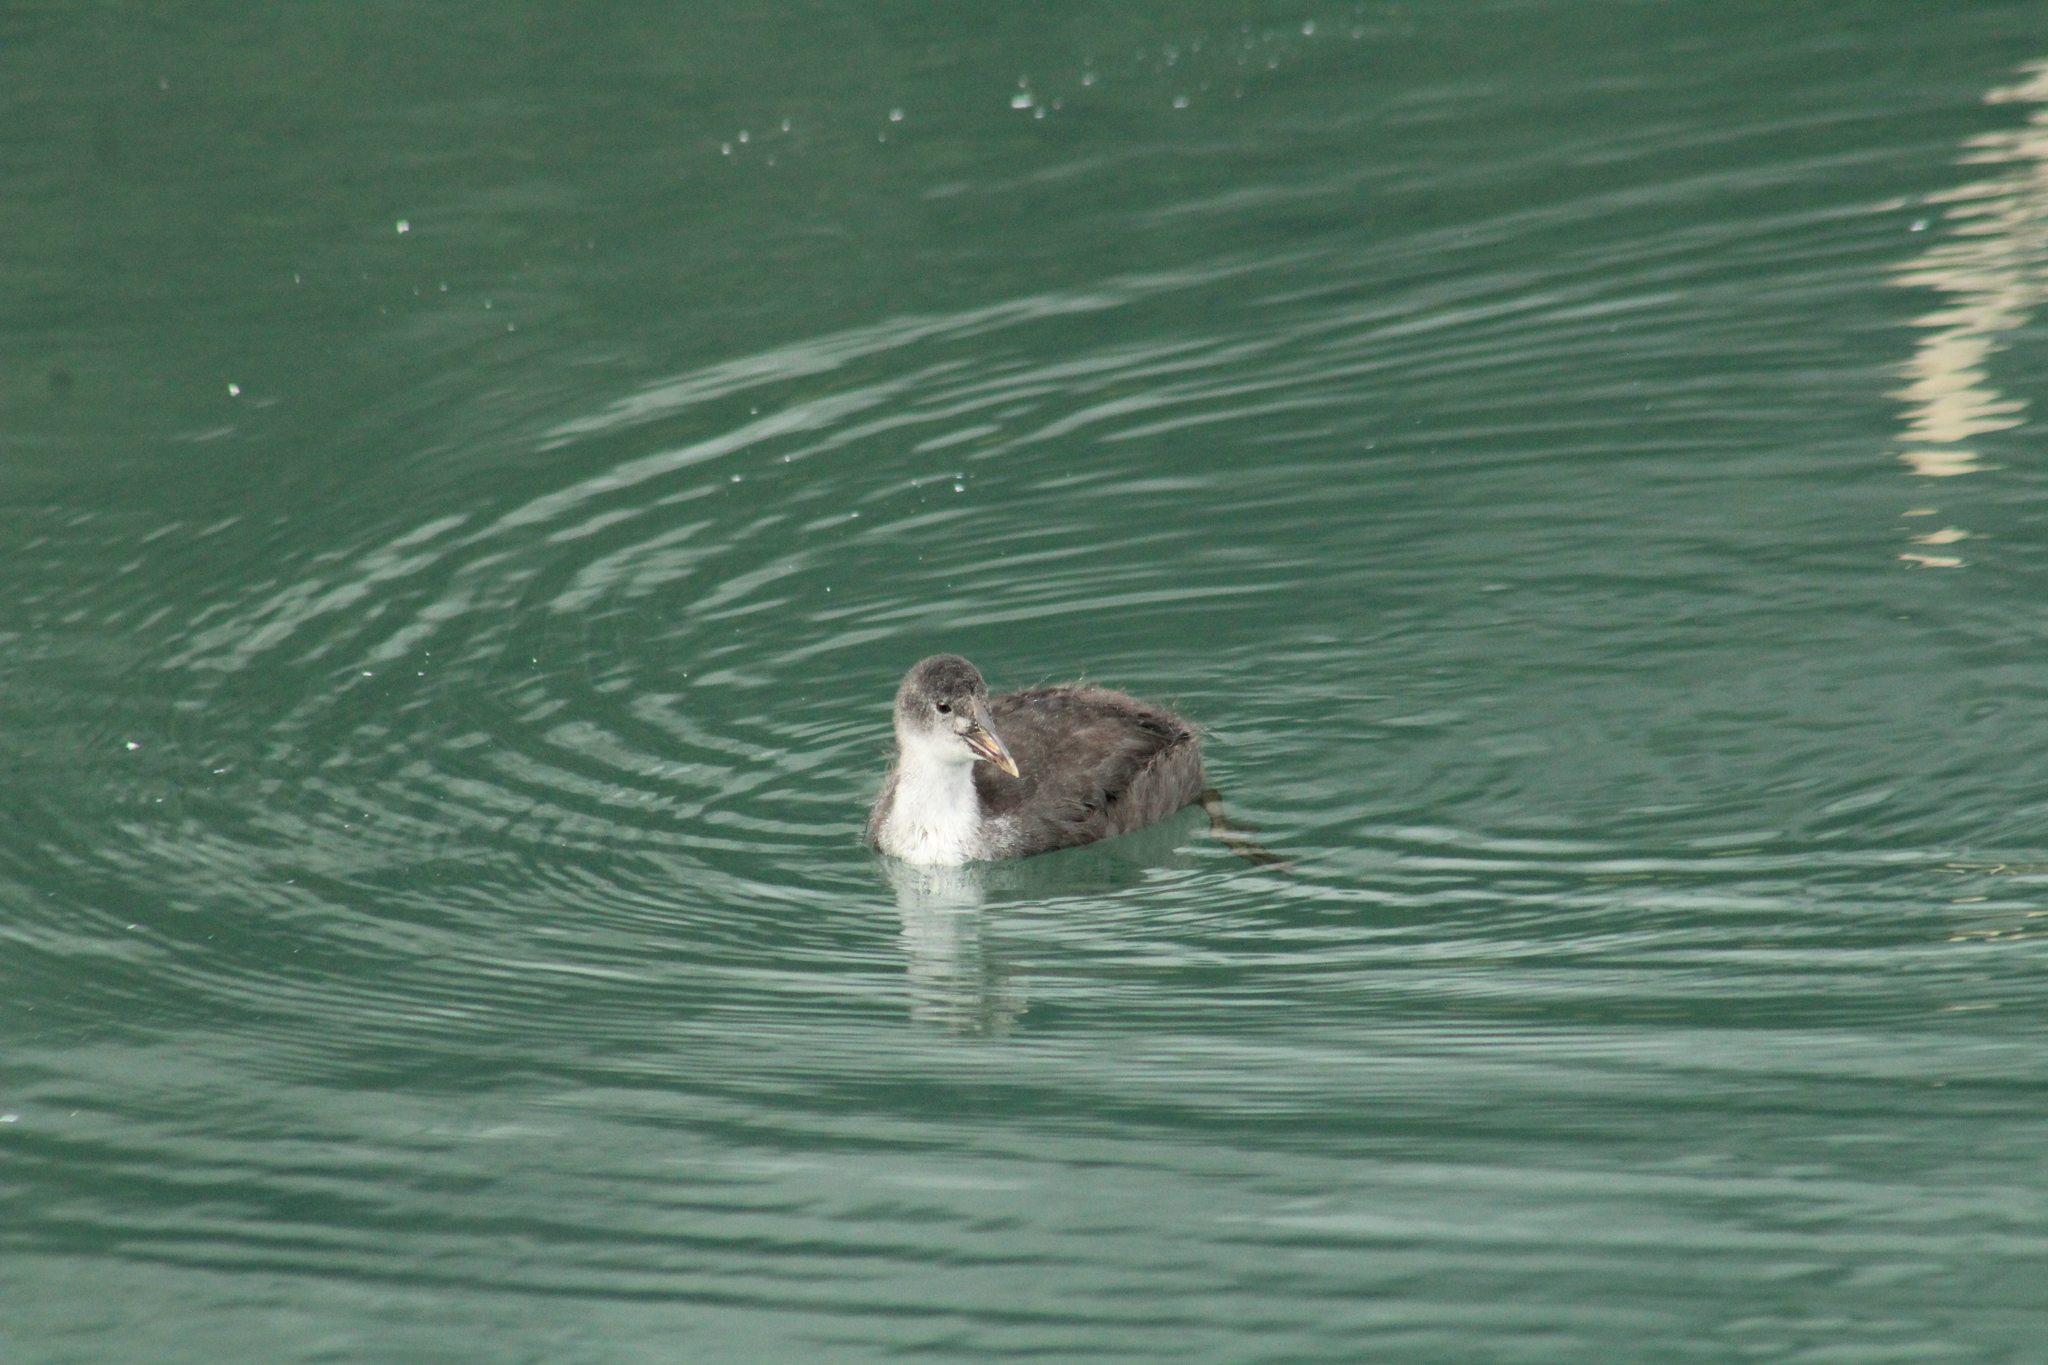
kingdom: Animalia
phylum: Chordata
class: Aves
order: Gruiformes
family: Rallidae
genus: Fulica
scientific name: Fulica atra
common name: Eurasian coot
